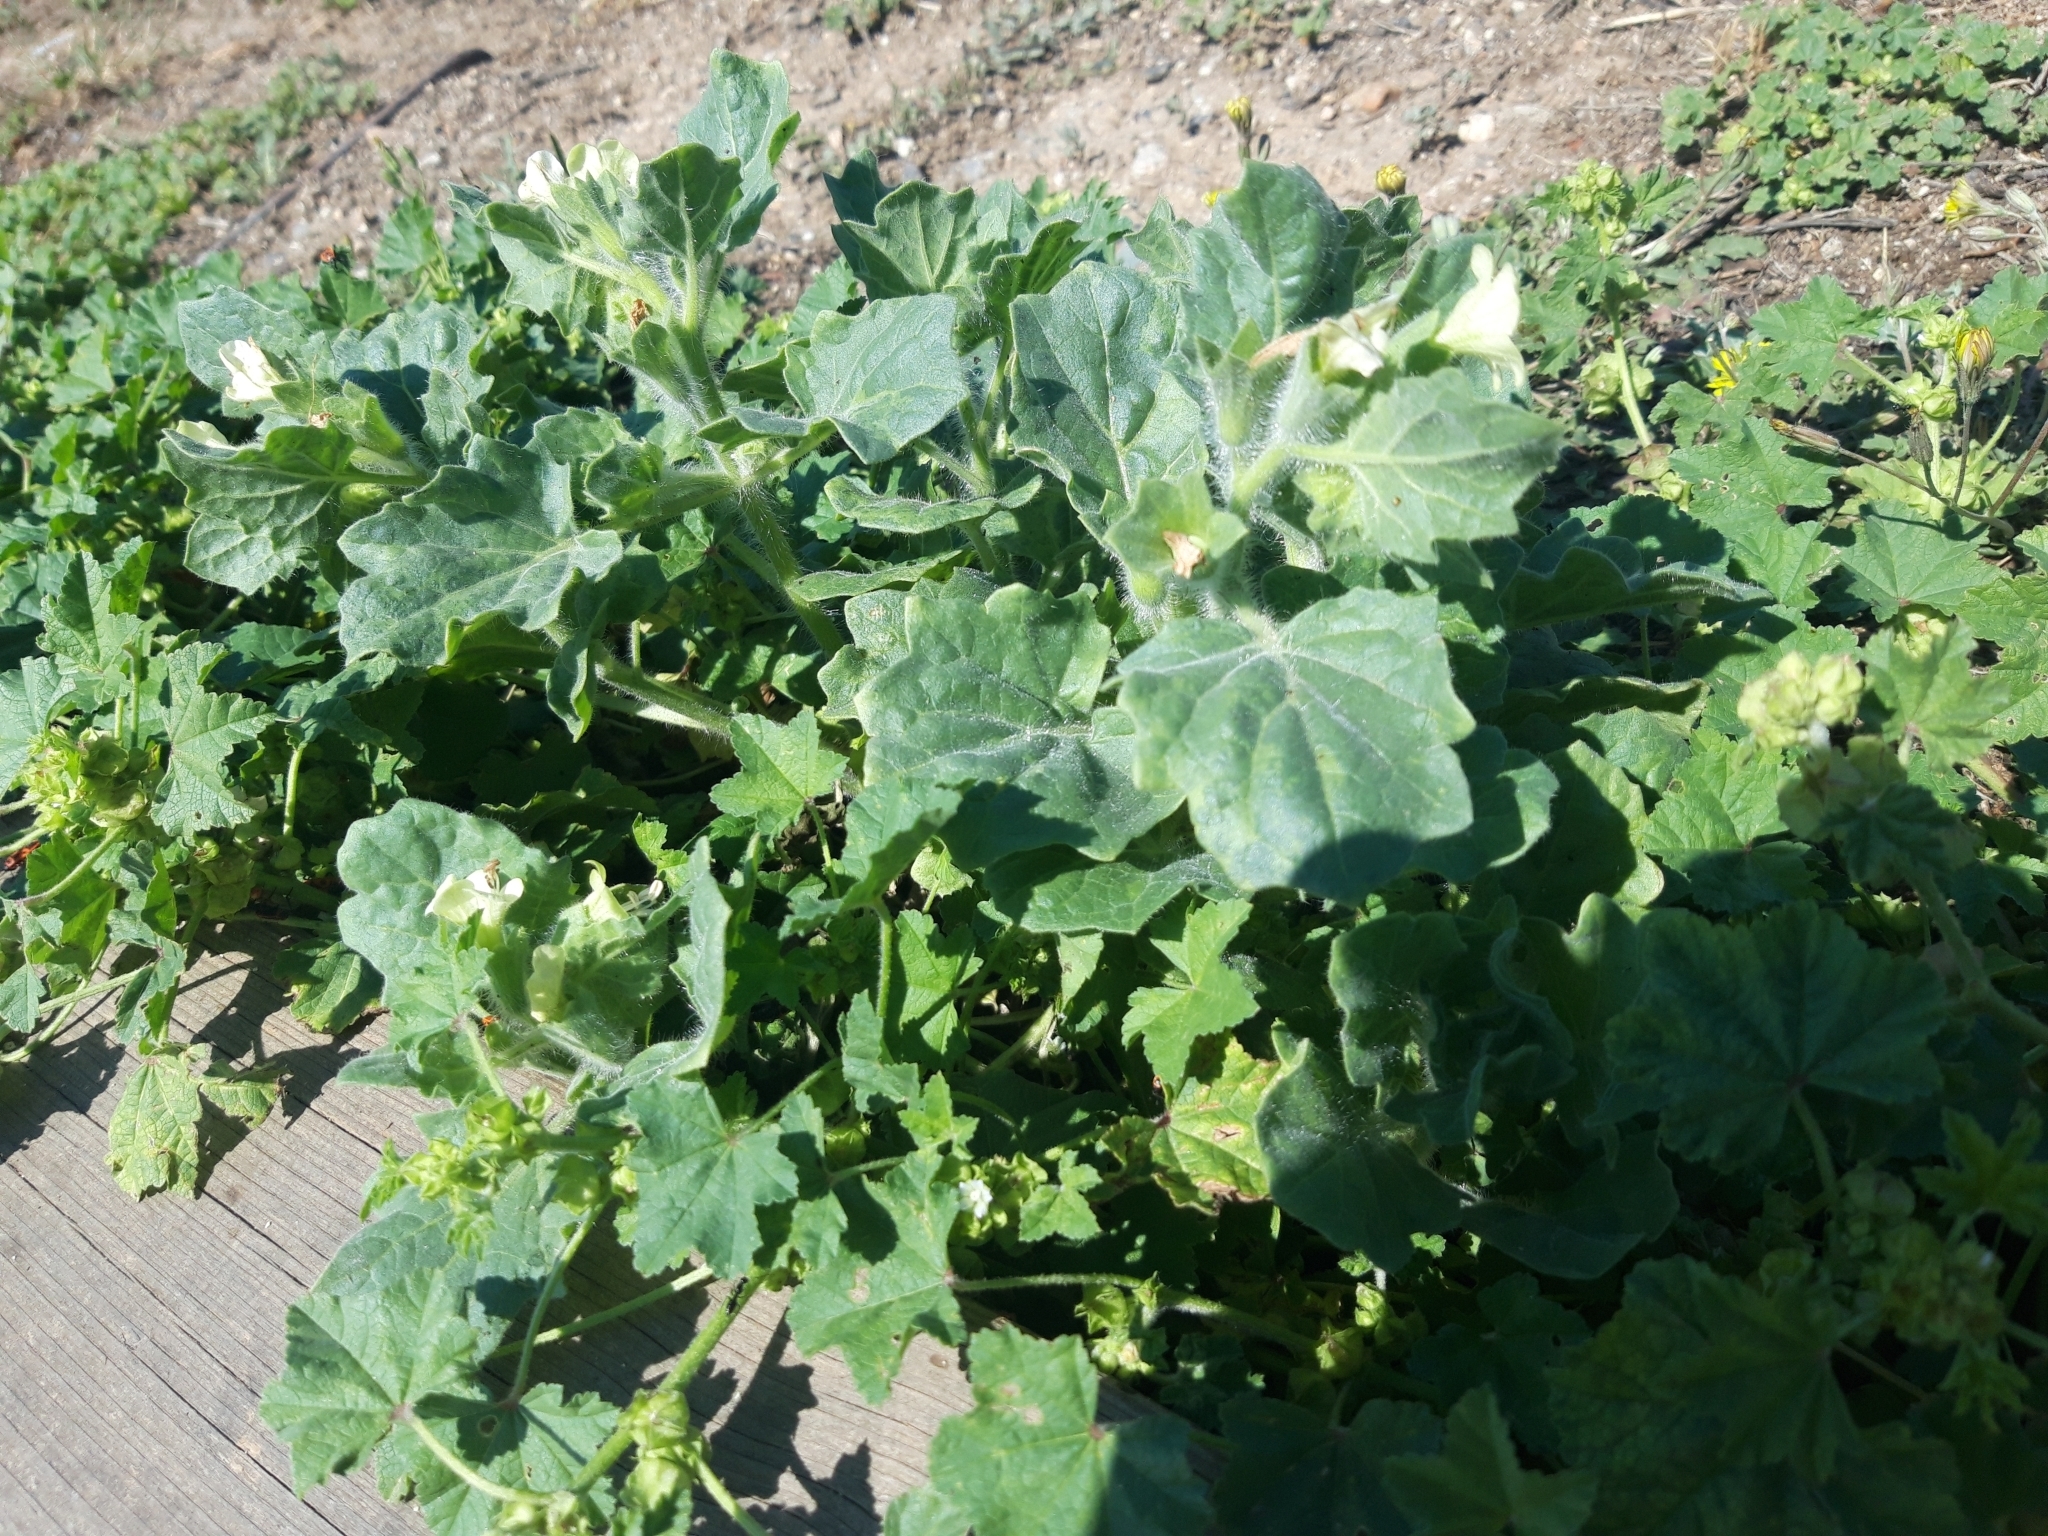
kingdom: Plantae
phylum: Tracheophyta
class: Magnoliopsida
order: Solanales
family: Solanaceae
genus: Hyoscyamus
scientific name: Hyoscyamus albus
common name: White henbane
